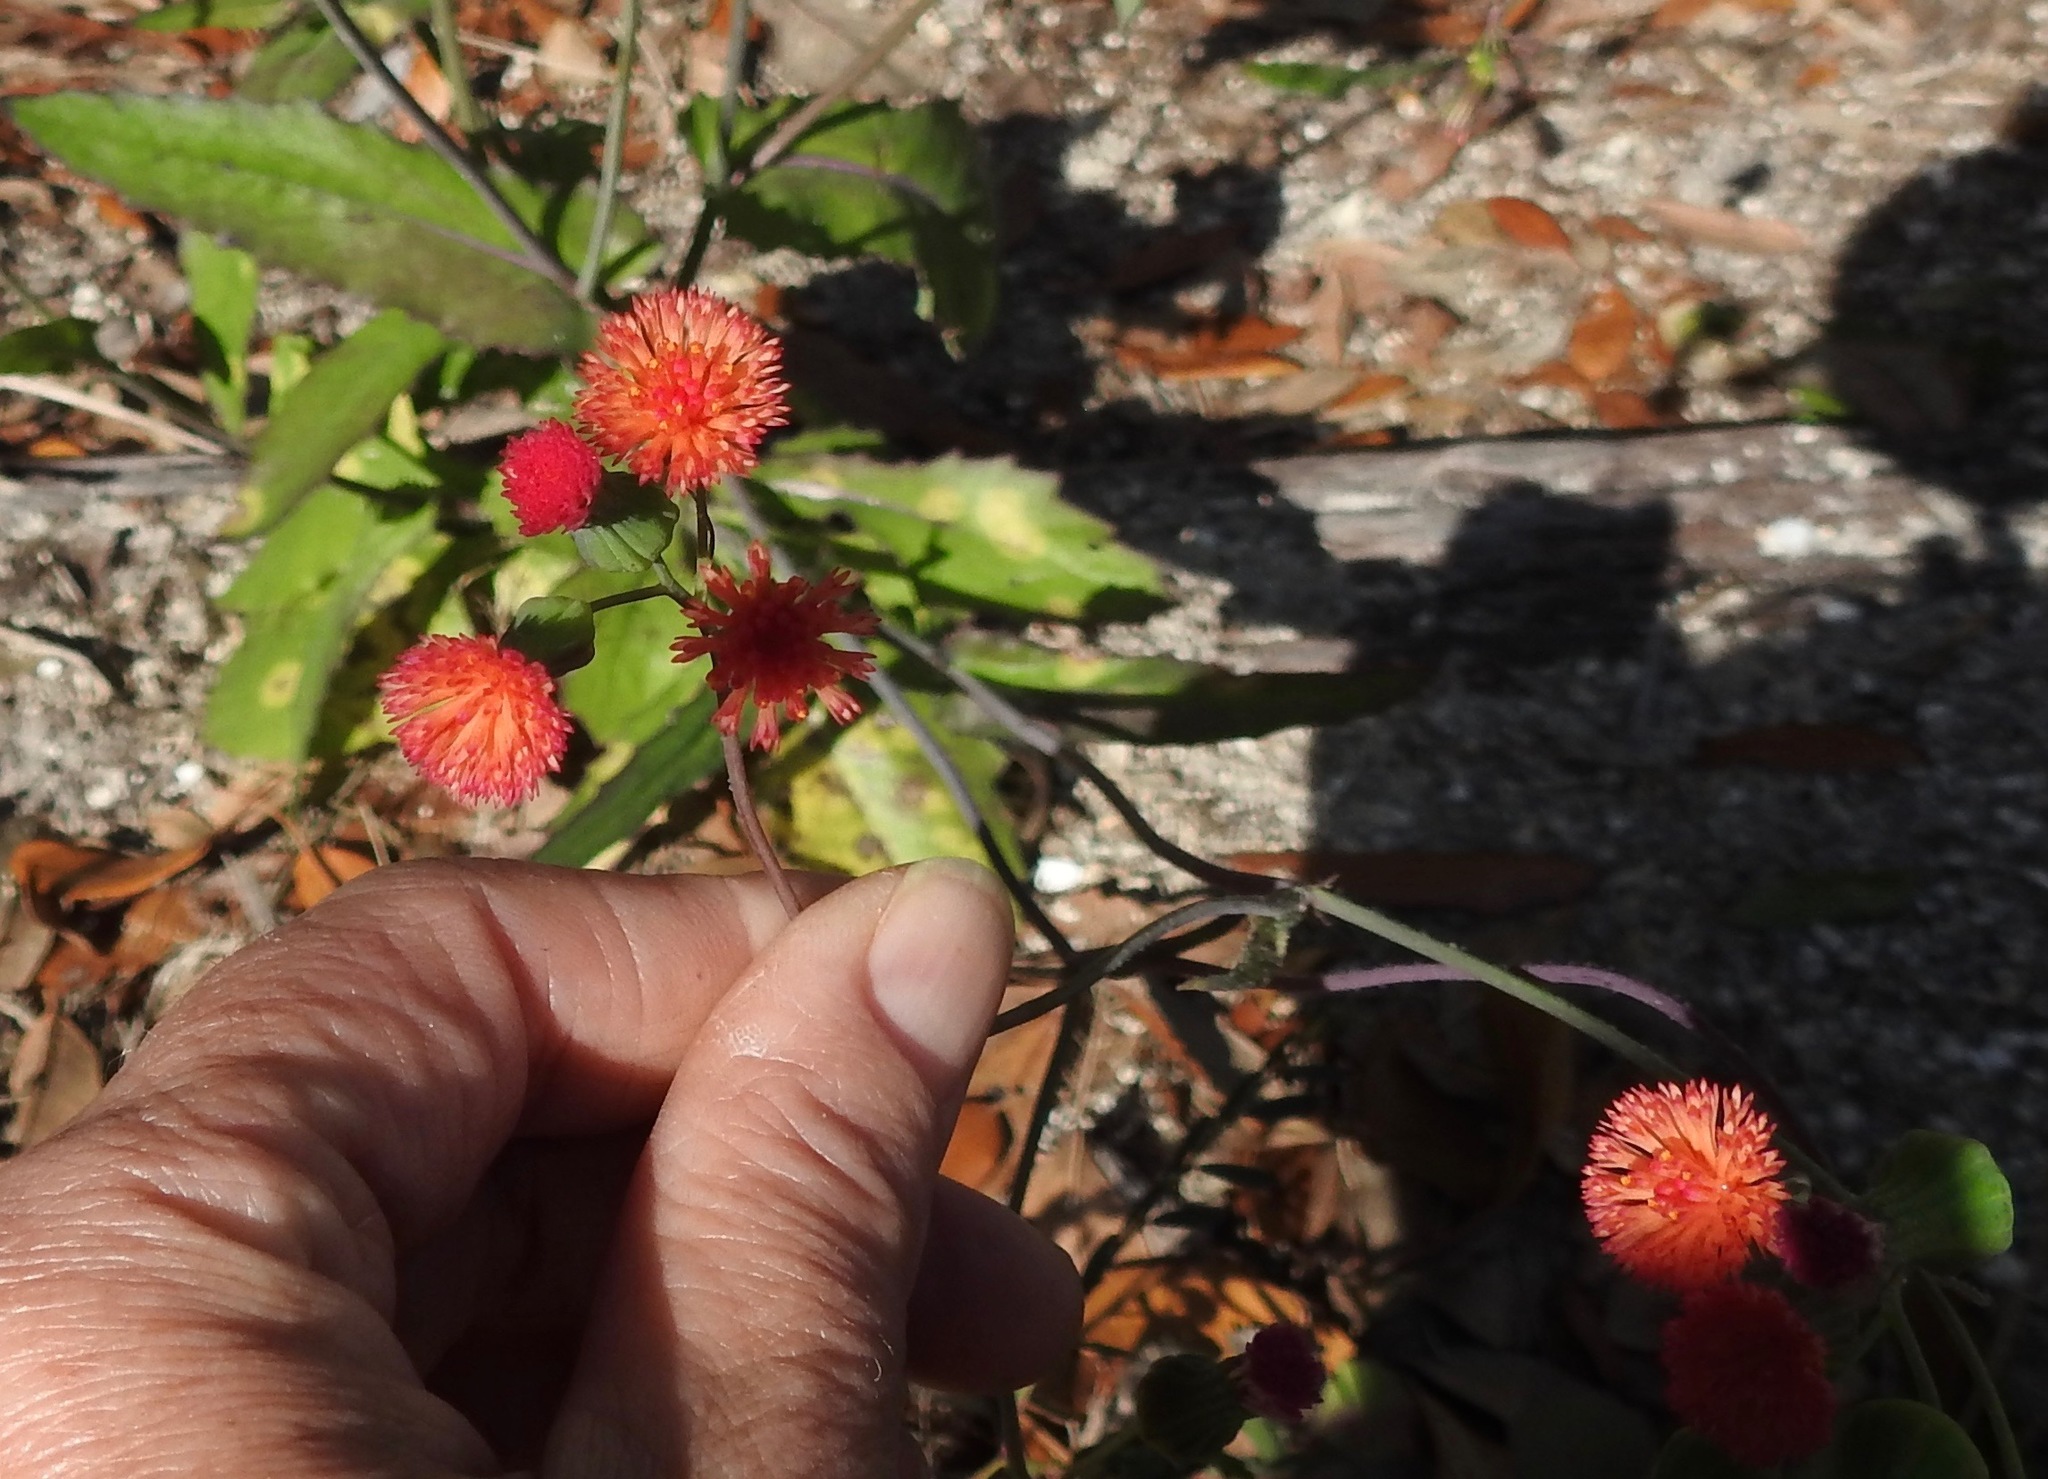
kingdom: Plantae
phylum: Tracheophyta
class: Magnoliopsida
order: Asterales
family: Asteraceae
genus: Emilia
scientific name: Emilia fosbergii
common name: Florida tasselflower
